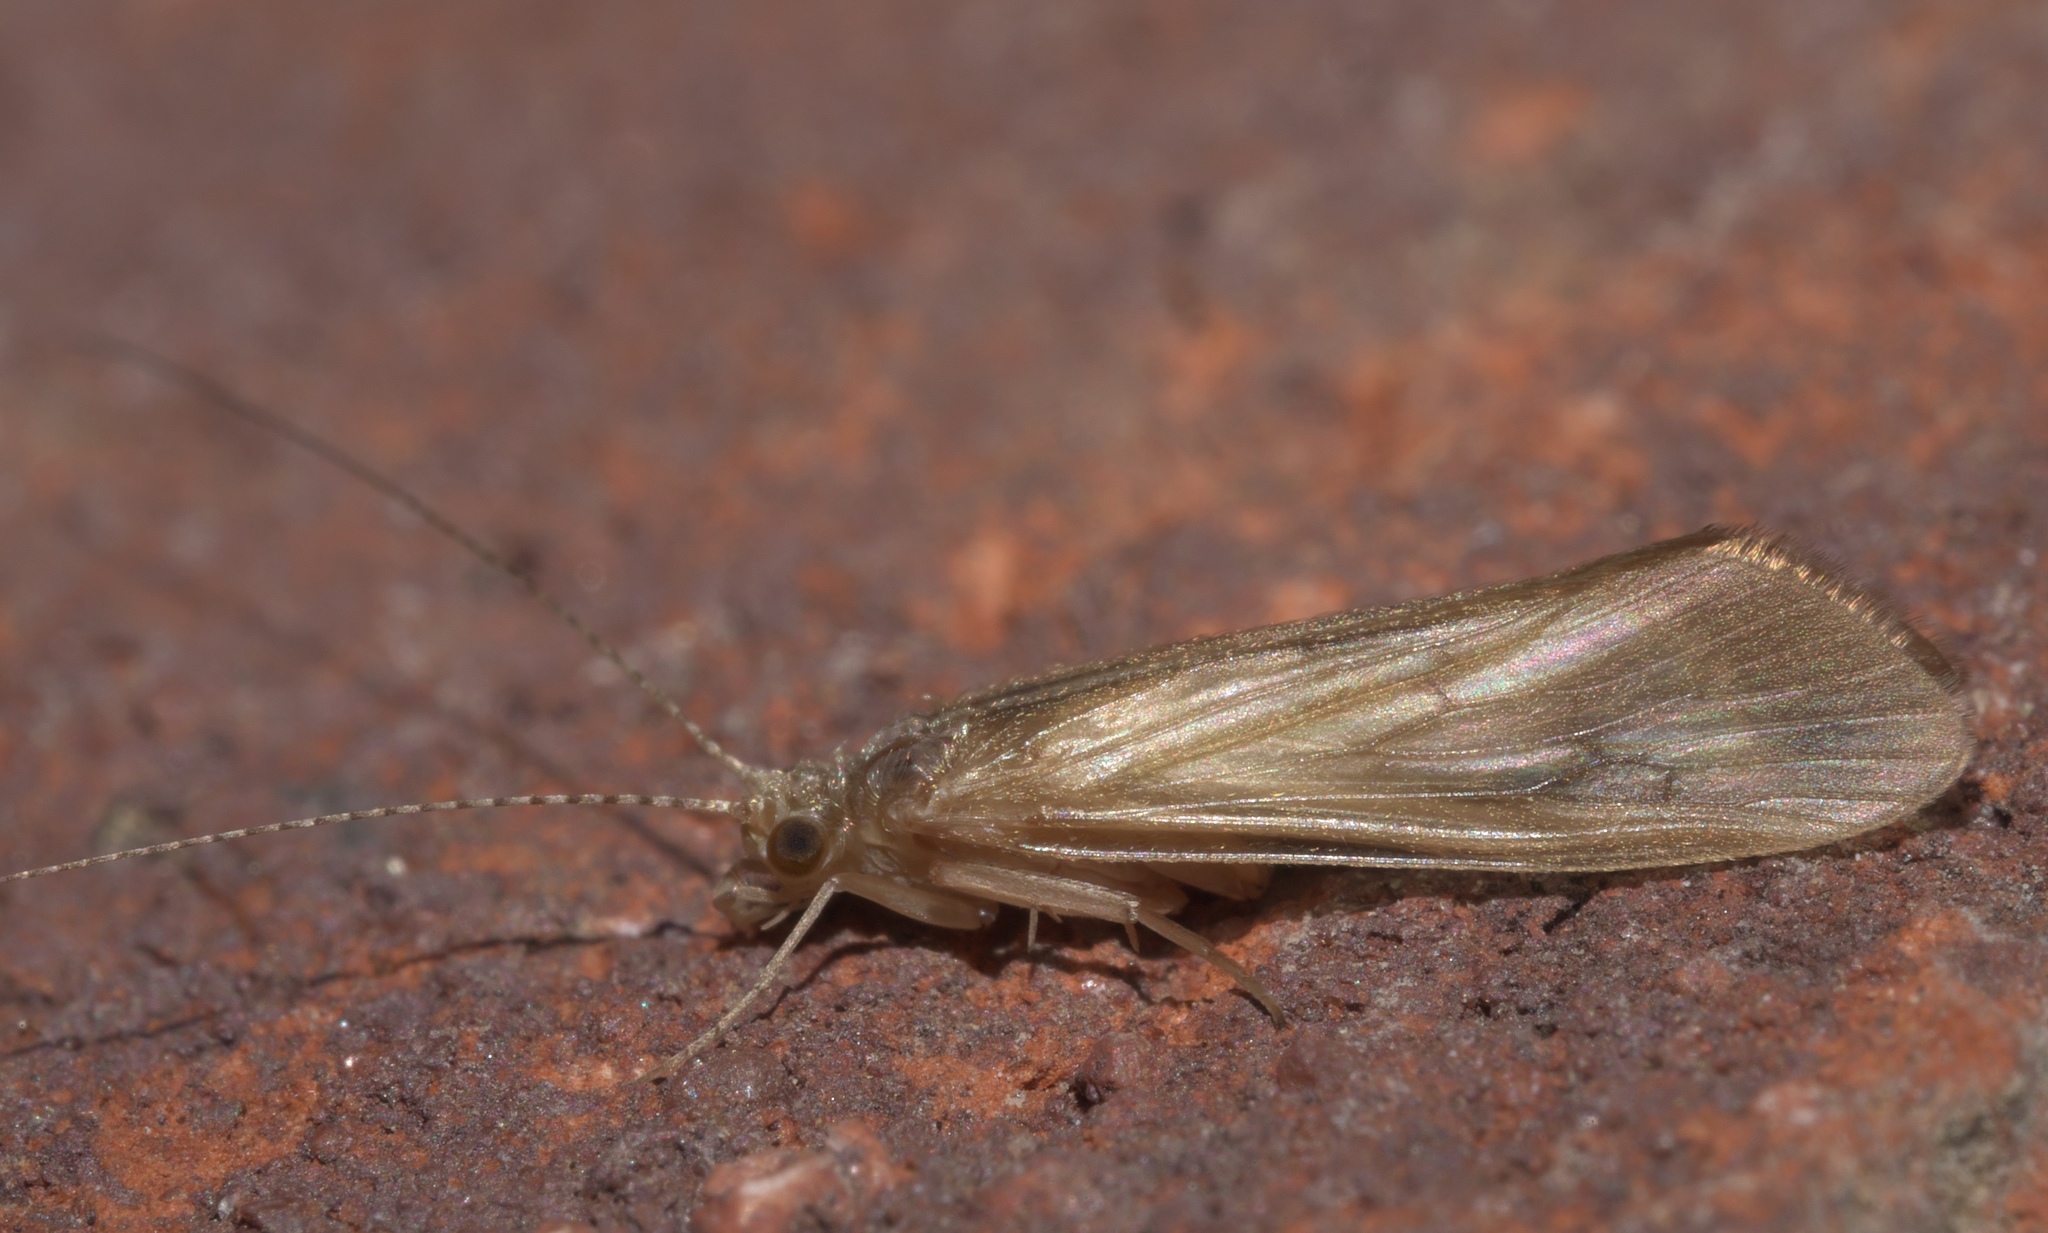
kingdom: Animalia
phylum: Arthropoda
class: Insecta
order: Trichoptera
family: Hydropsychidae
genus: Potamyia
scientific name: Potamyia flava
